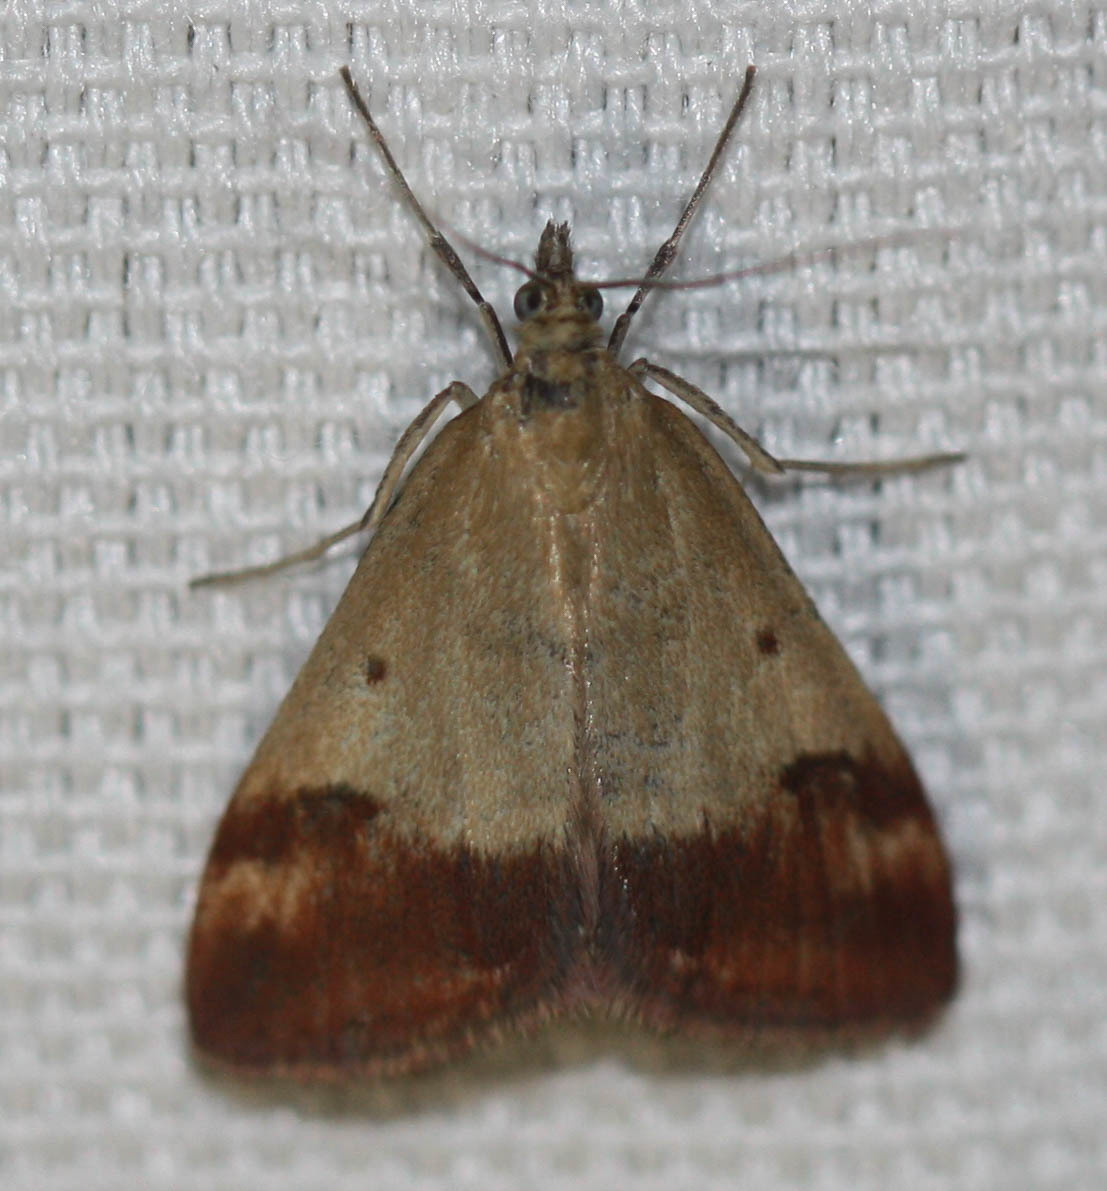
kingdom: Animalia
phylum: Arthropoda
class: Insecta
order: Lepidoptera
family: Crambidae
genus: Pyrausta
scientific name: Pyrausta semirubralis
